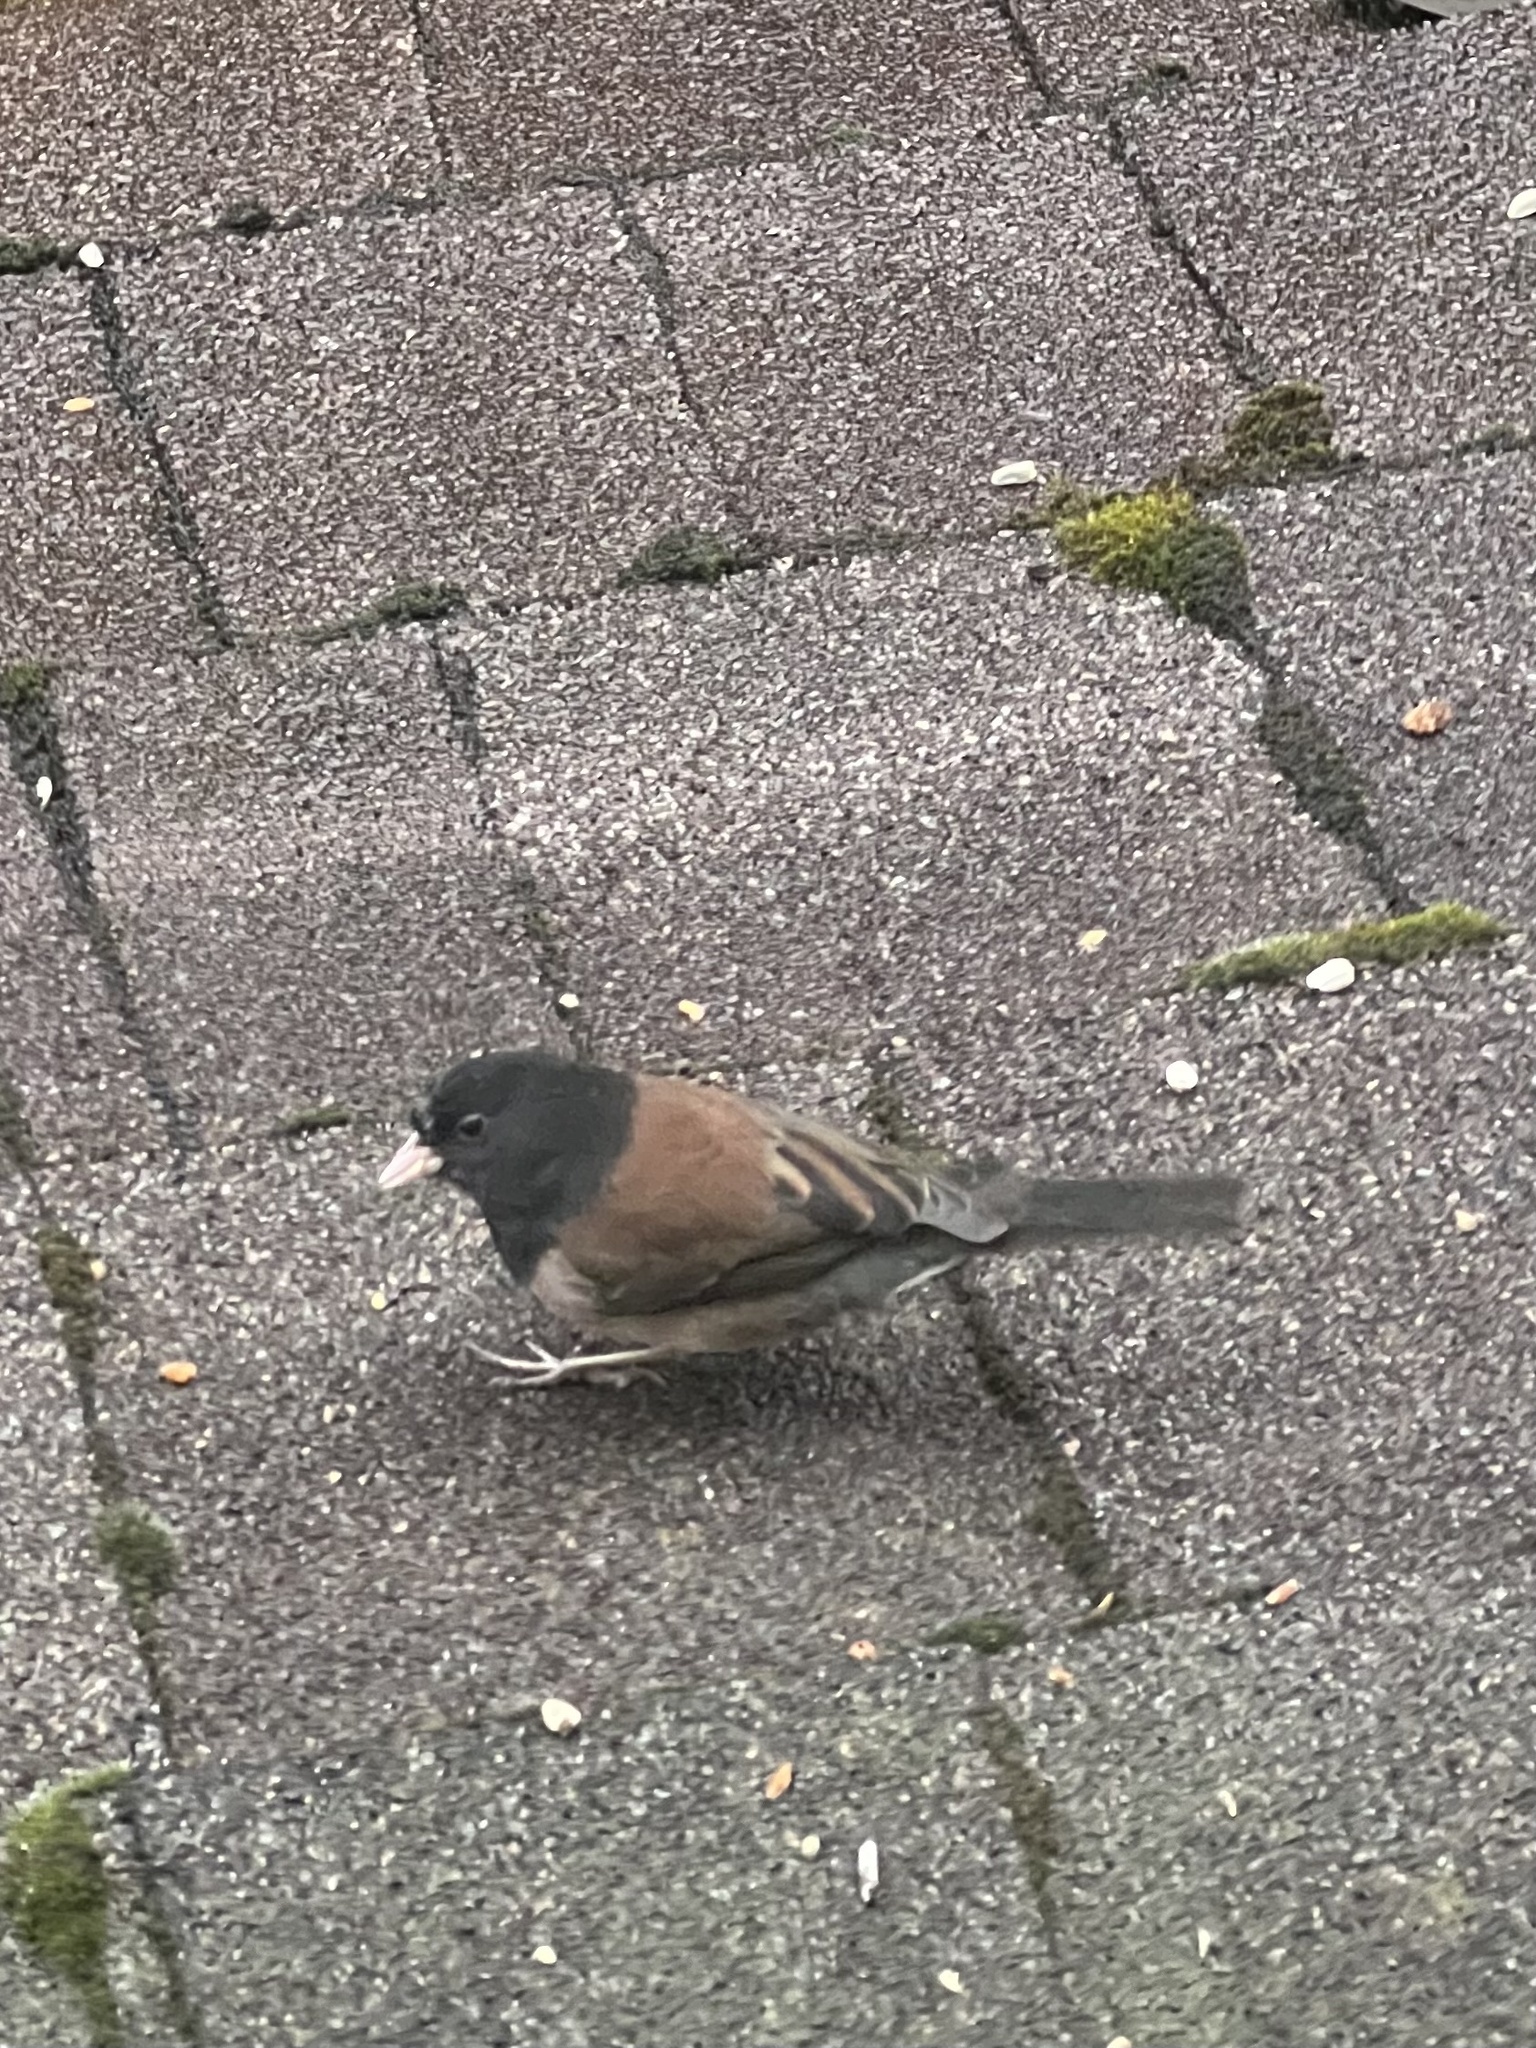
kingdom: Animalia
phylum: Chordata
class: Aves
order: Passeriformes
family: Passerellidae
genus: Junco
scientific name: Junco hyemalis
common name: Dark-eyed junco
